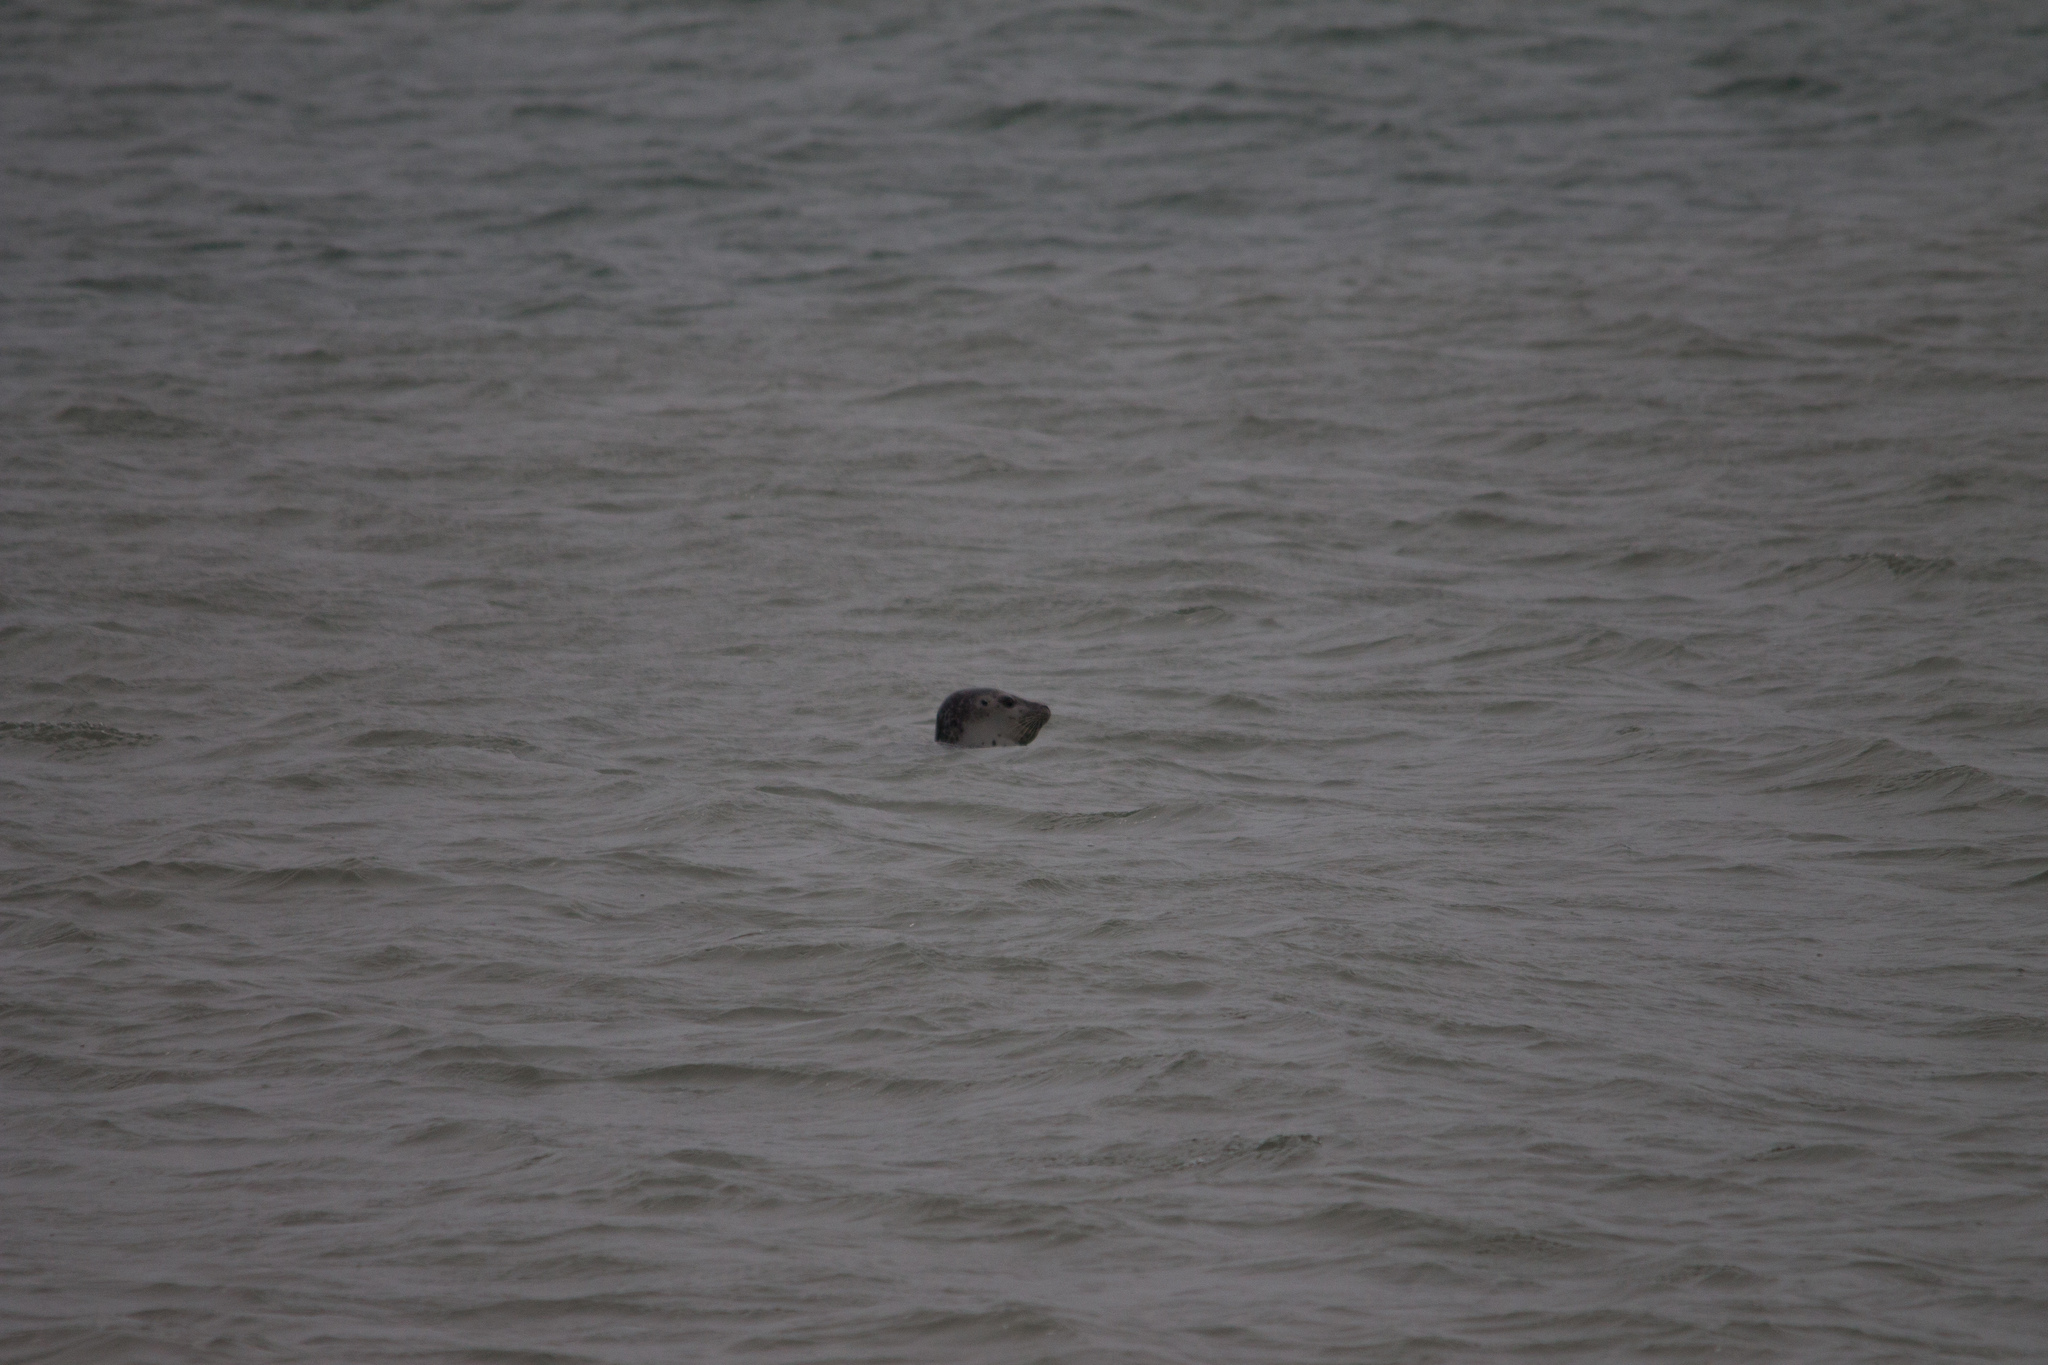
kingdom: Animalia
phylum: Chordata
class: Mammalia
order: Carnivora
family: Phocidae
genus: Phoca
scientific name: Phoca vitulina
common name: Harbor seal
